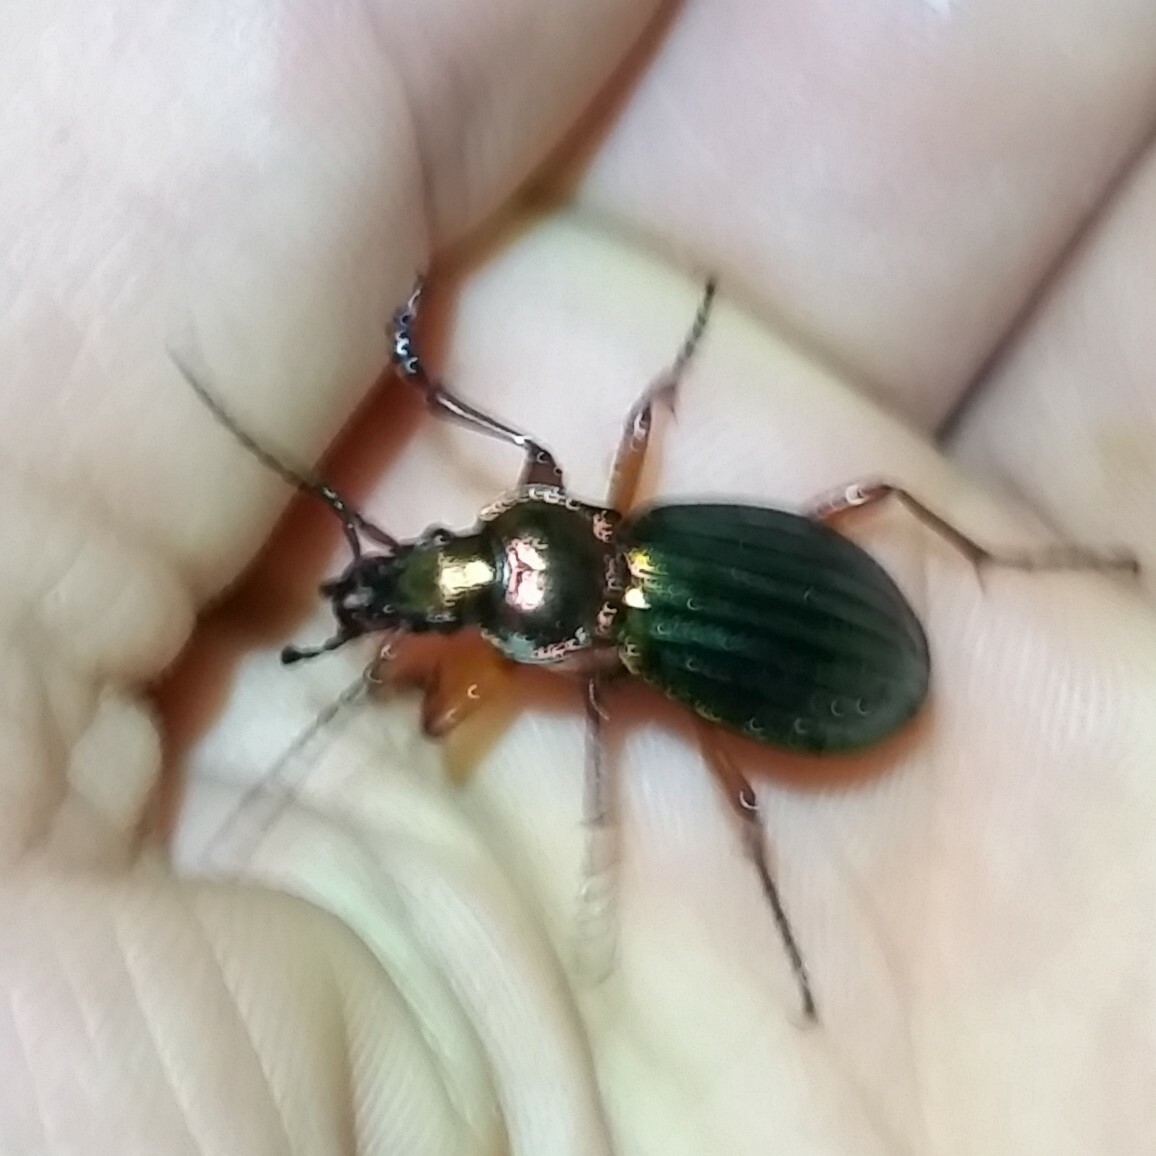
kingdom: Animalia
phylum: Arthropoda
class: Insecta
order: Coleoptera
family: Carabidae
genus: Carabus
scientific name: Carabus auronitens
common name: Carabus auronitens
